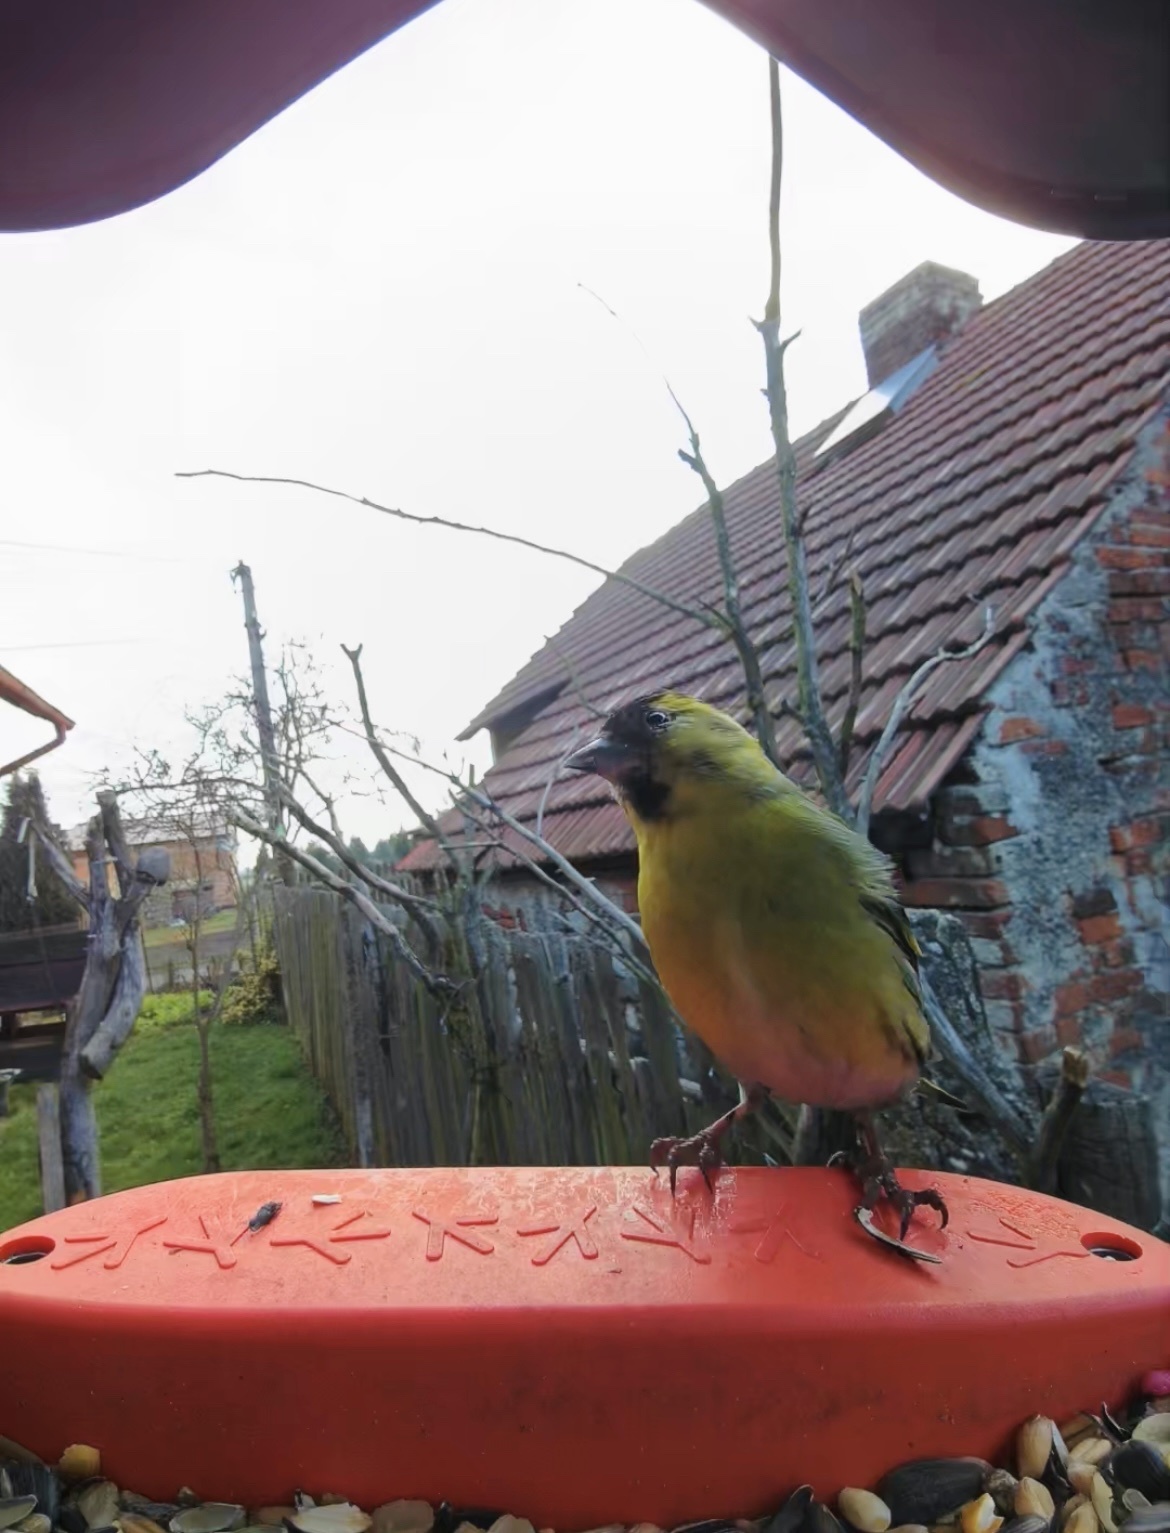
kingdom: Animalia
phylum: Chordata
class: Aves
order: Passeriformes
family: Fringillidae
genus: Spinus
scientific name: Spinus spinus
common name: Eurasian siskin
